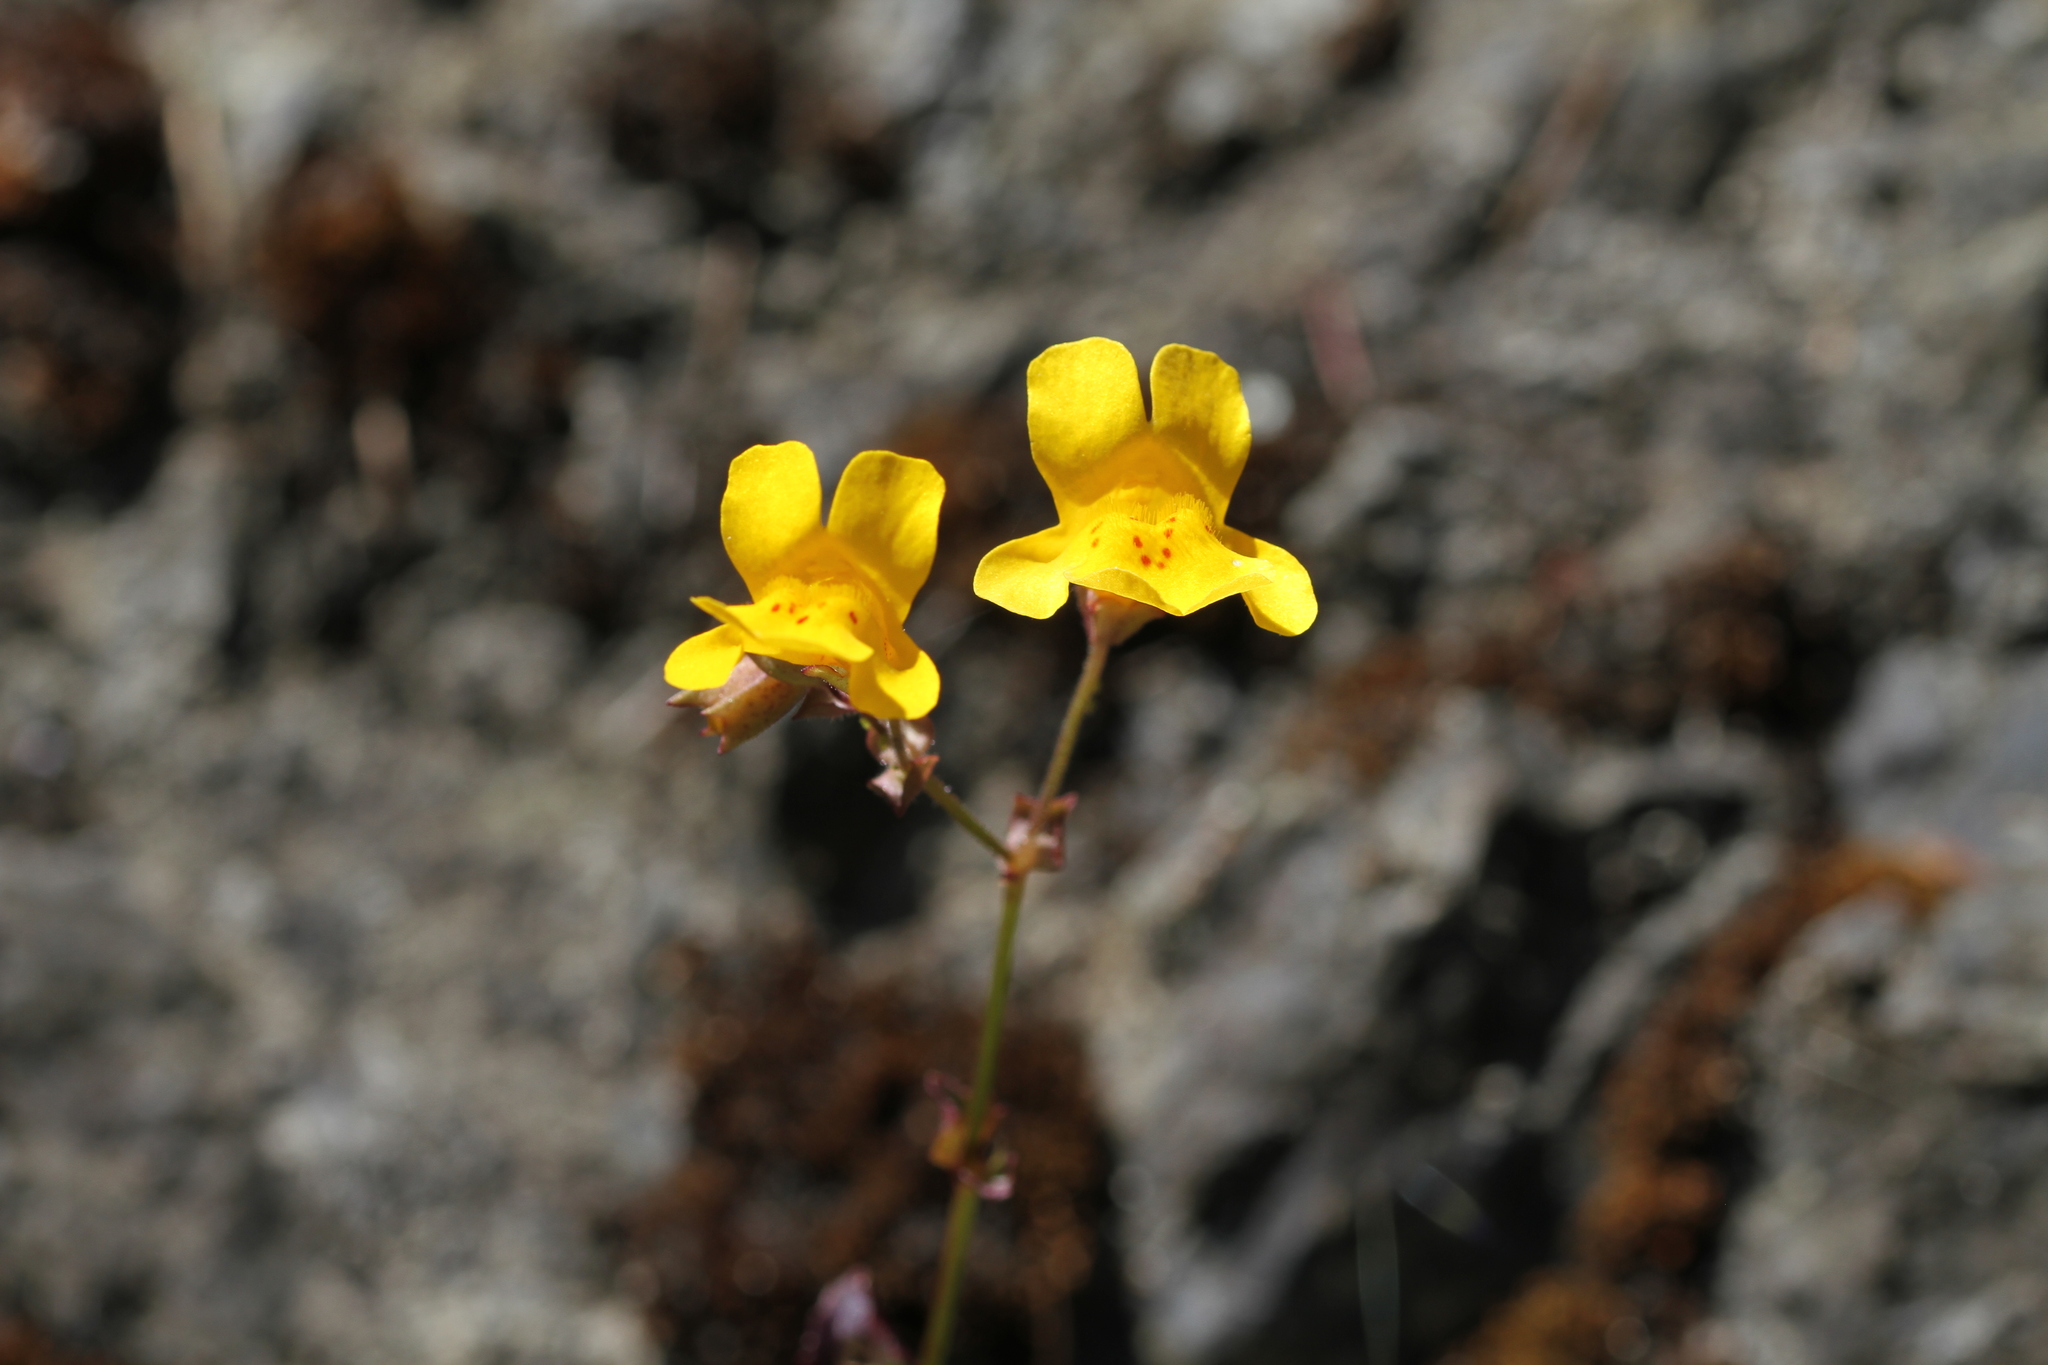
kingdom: Plantae
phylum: Tracheophyta
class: Magnoliopsida
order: Lamiales
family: Phrymaceae
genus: Erythranthe
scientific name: Erythranthe guttata
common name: Monkeyflower
